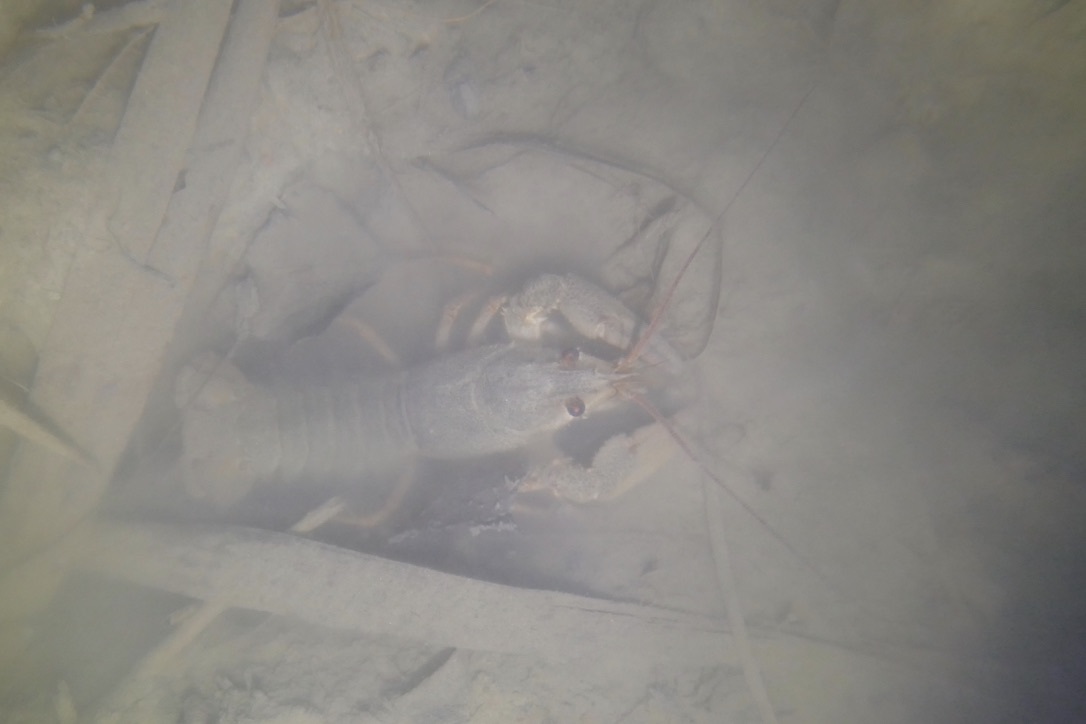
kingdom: Animalia
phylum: Arthropoda
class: Malacostraca
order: Decapoda
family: Astacidae
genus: Pontastacus
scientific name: Pontastacus leptodactylus
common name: Danube crayfish
